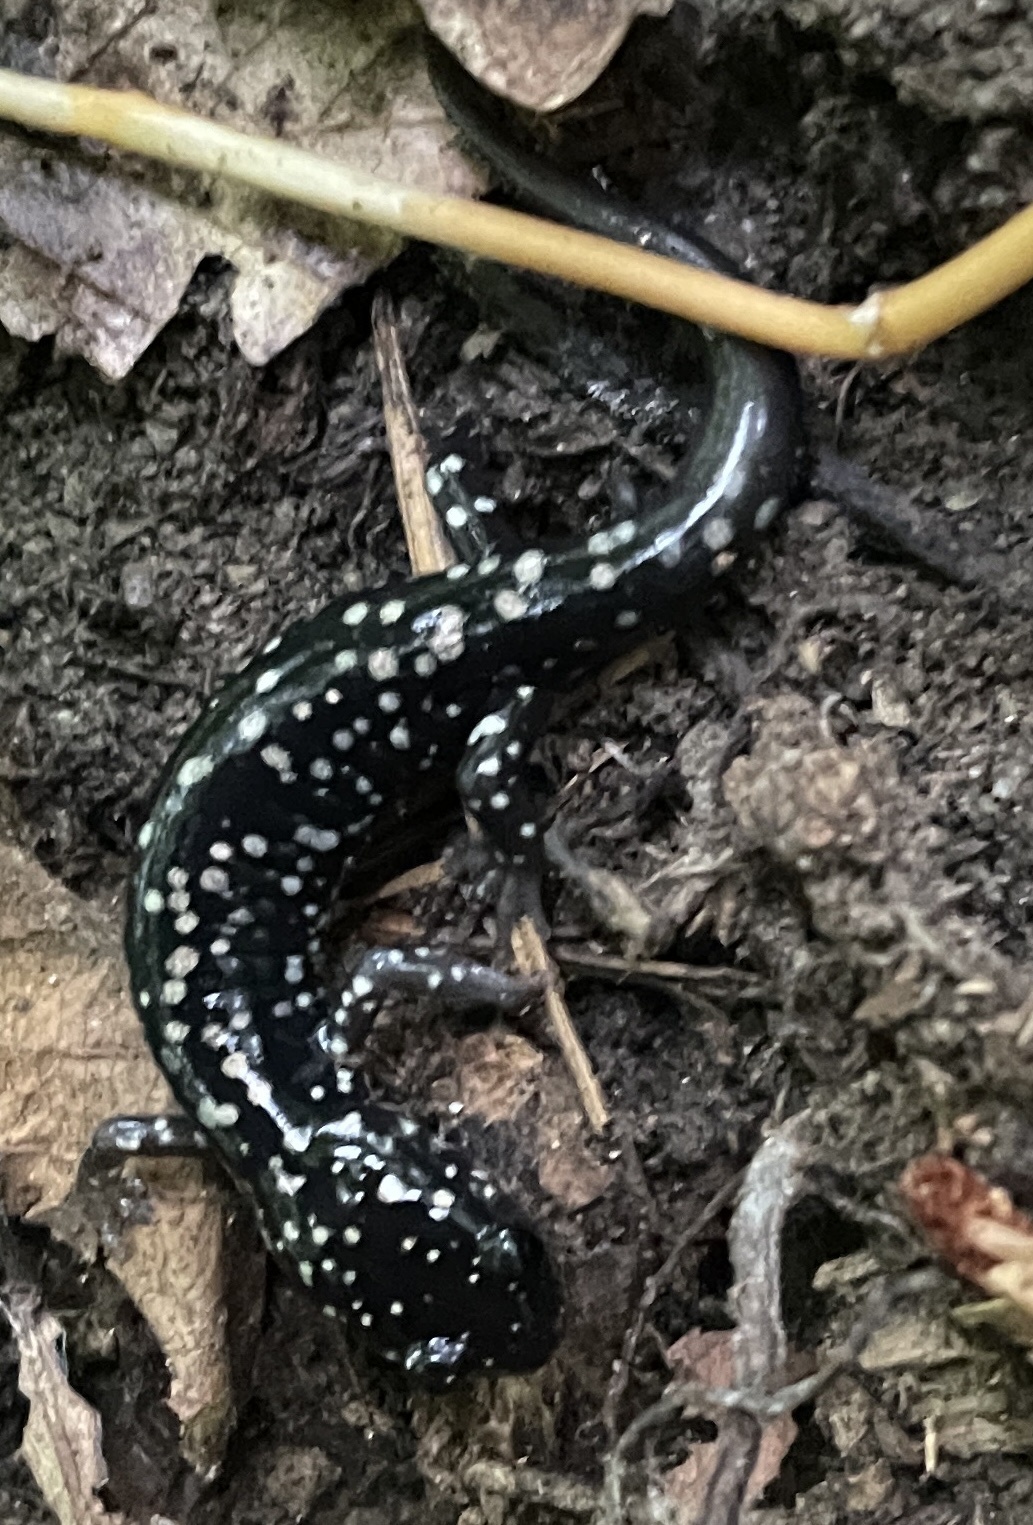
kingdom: Animalia
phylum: Chordata
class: Amphibia
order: Caudata
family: Plethodontidae
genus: Plethodon
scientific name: Plethodon glutinosus
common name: Northern slimy salamander
